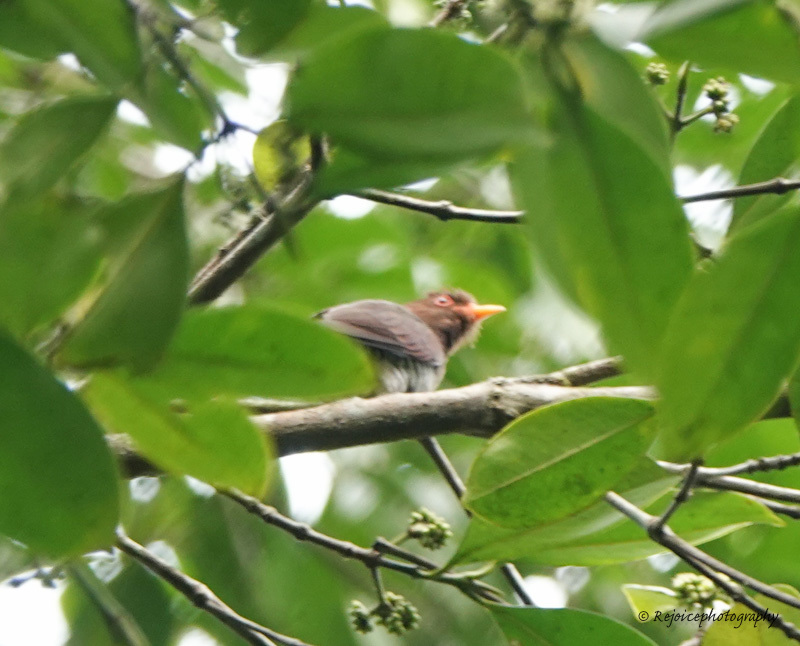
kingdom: Animalia
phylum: Chordata
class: Aves
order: Cuculiformes
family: Cuculidae
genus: Chrysococcyx
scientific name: Chrysococcyx xanthorhynchus
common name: Violet cuckoo
